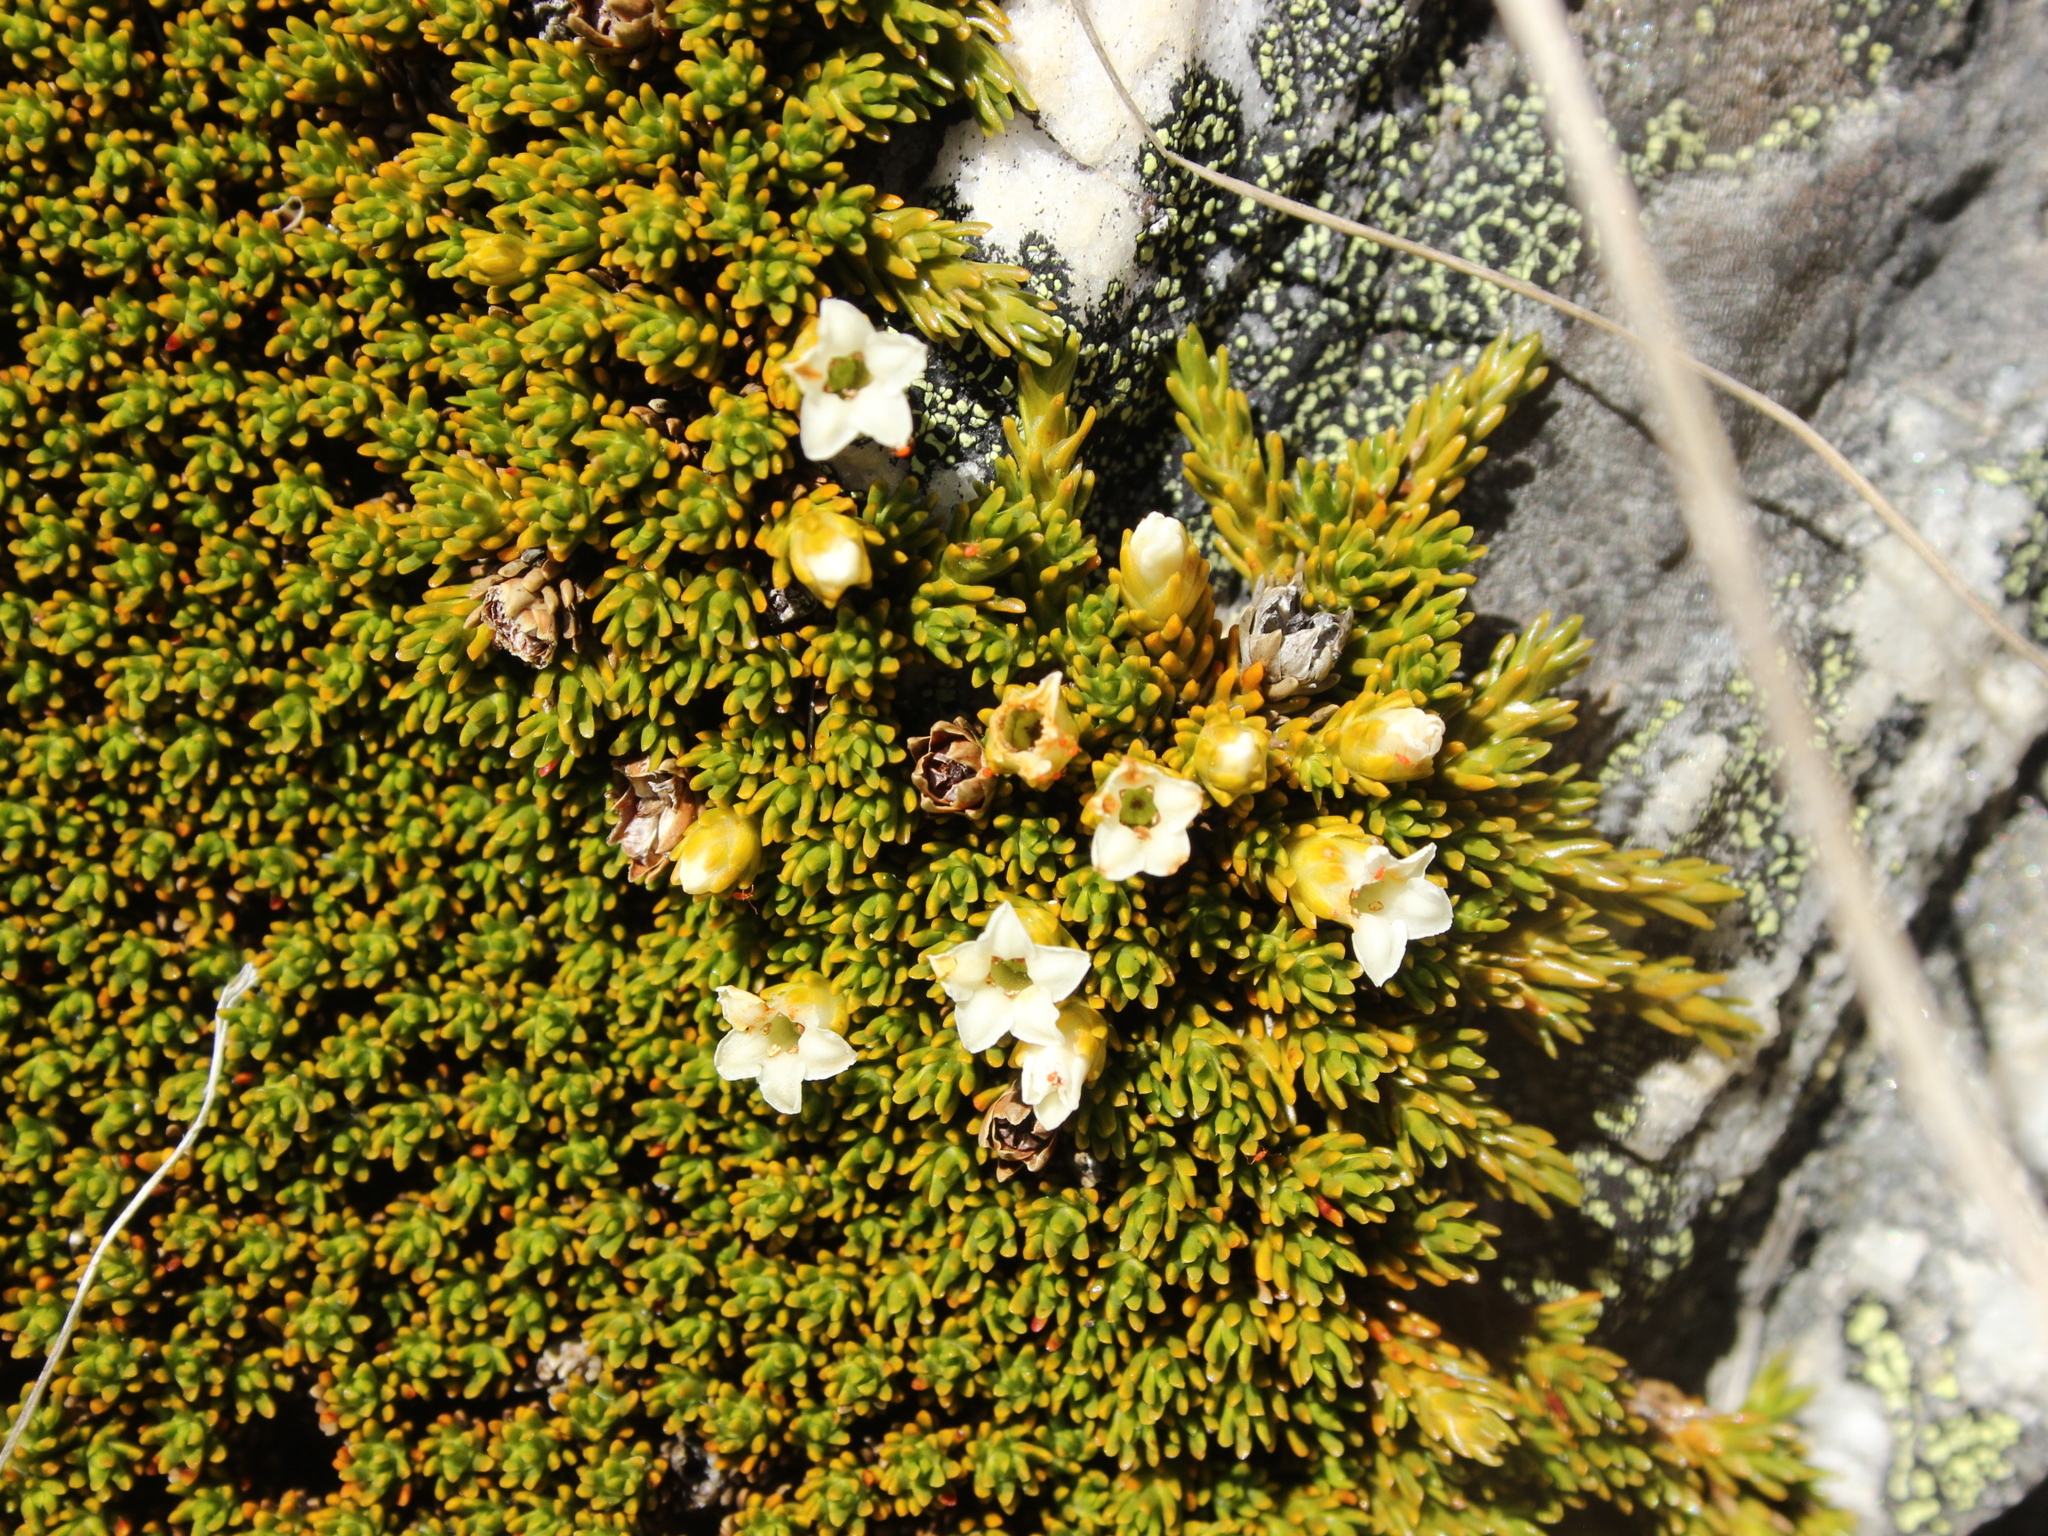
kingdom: Plantae
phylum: Tracheophyta
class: Magnoliopsida
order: Ericales
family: Ericaceae
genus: Dracophyllum
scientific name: Dracophyllum muscoides
